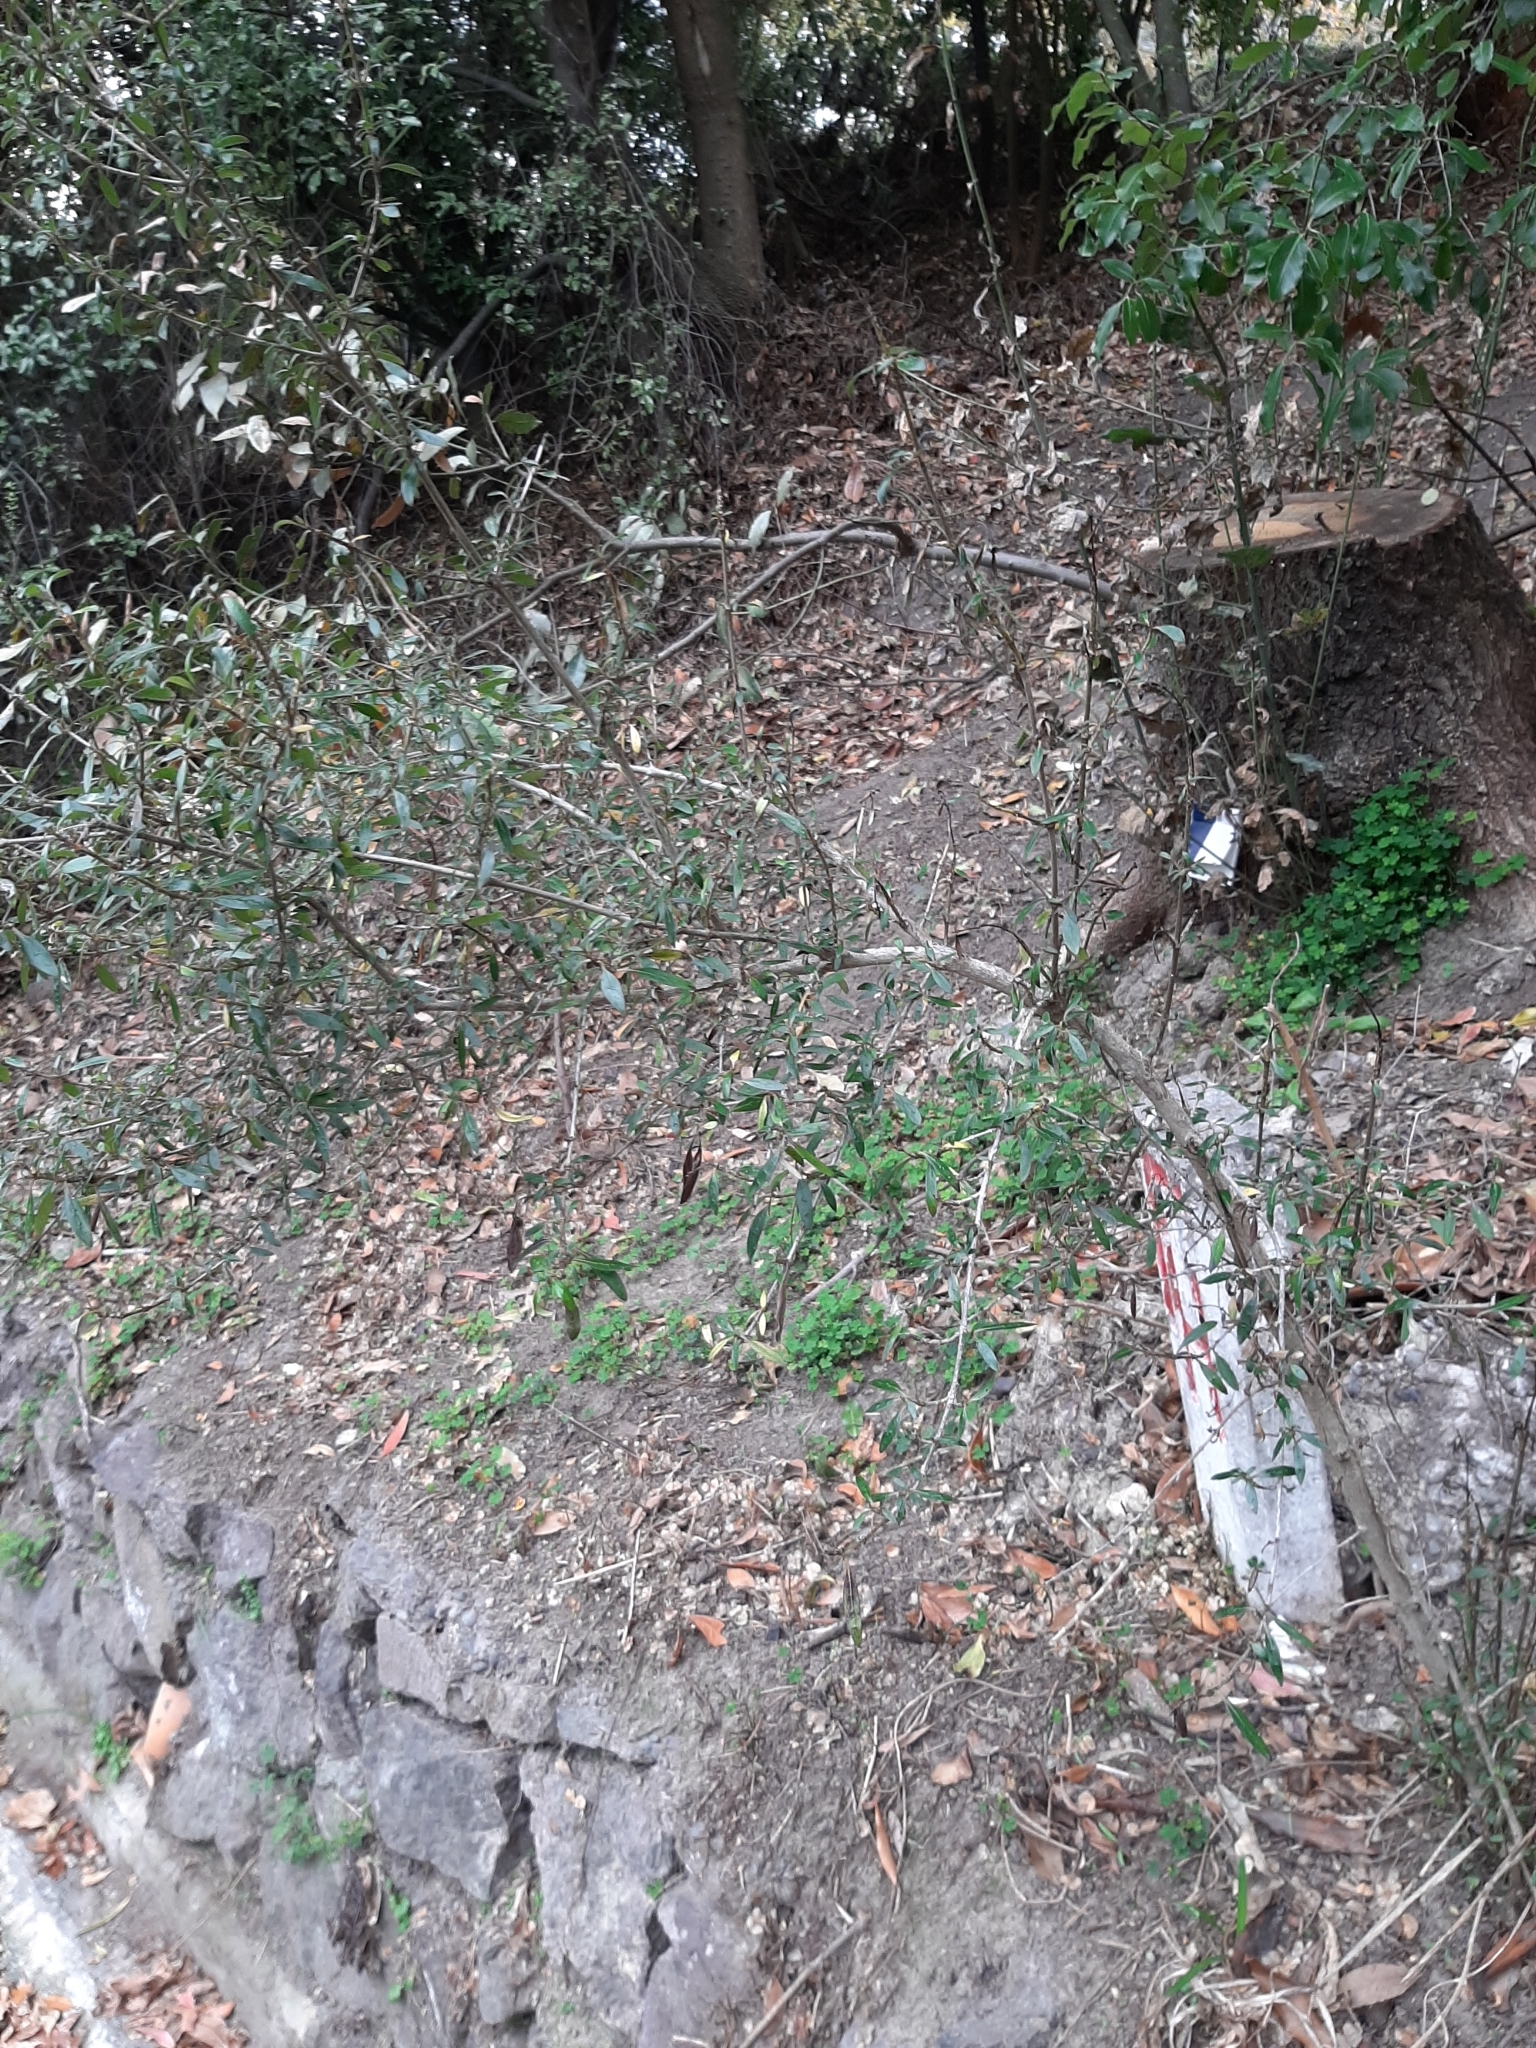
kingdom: Plantae
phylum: Tracheophyta
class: Magnoliopsida
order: Gentianales
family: Rubiaceae
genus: Coprosma
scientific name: Coprosma cunninghamii
